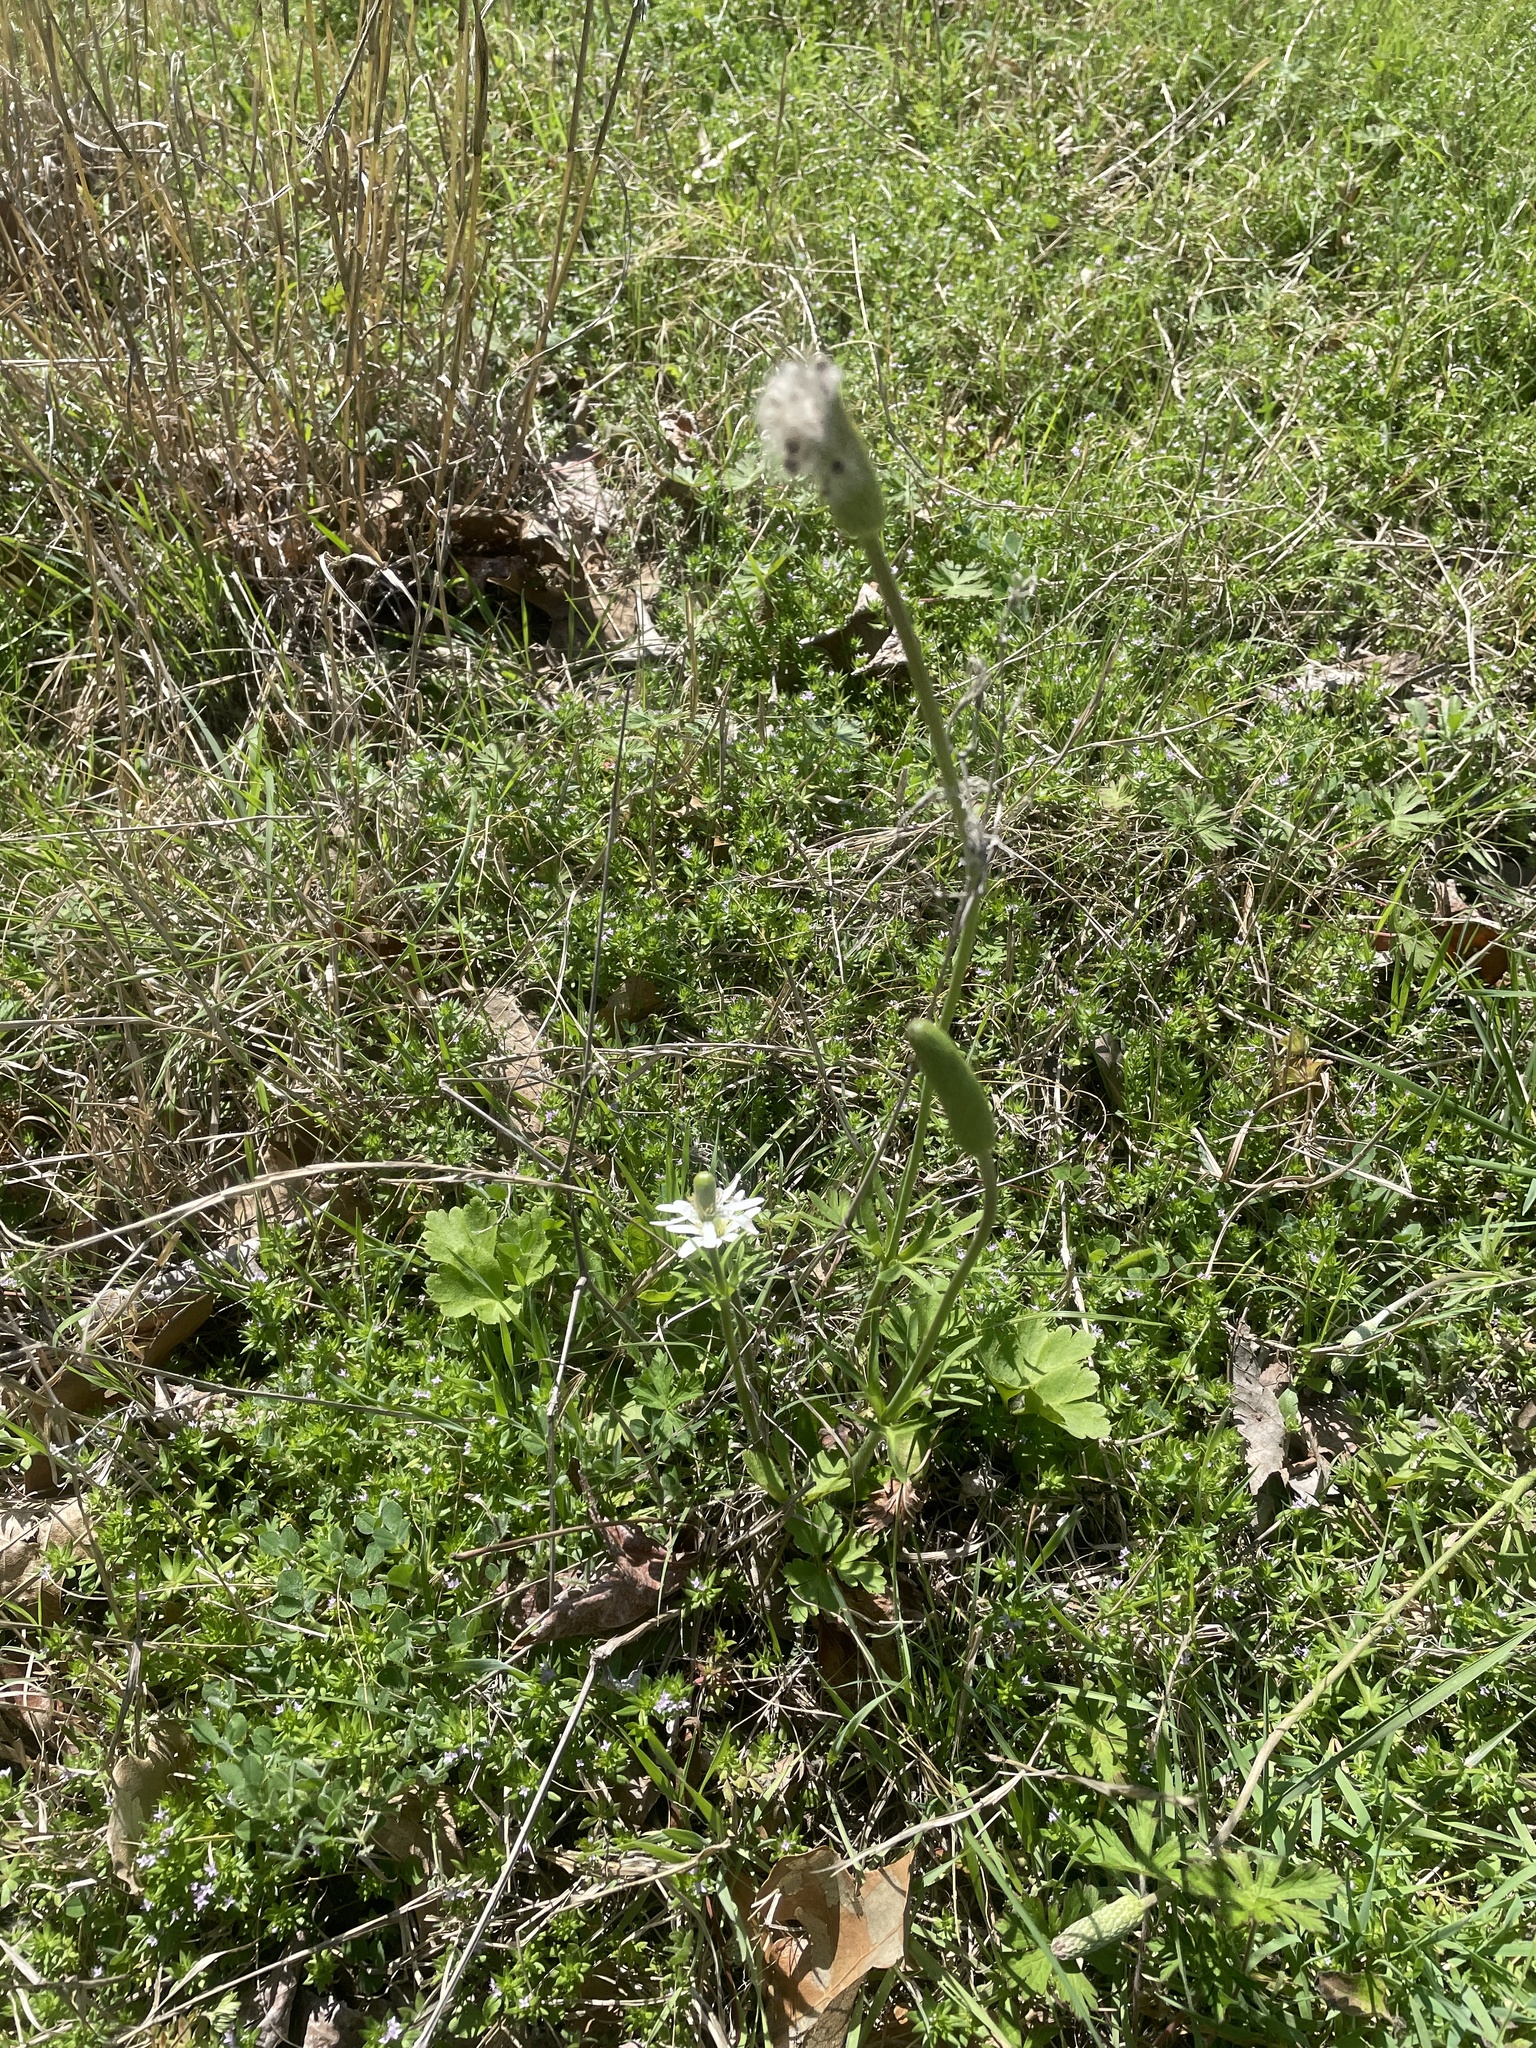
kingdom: Plantae
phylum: Tracheophyta
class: Magnoliopsida
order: Ranunculales
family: Ranunculaceae
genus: Anemone
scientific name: Anemone berlandieri
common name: Ten-petal anemone
